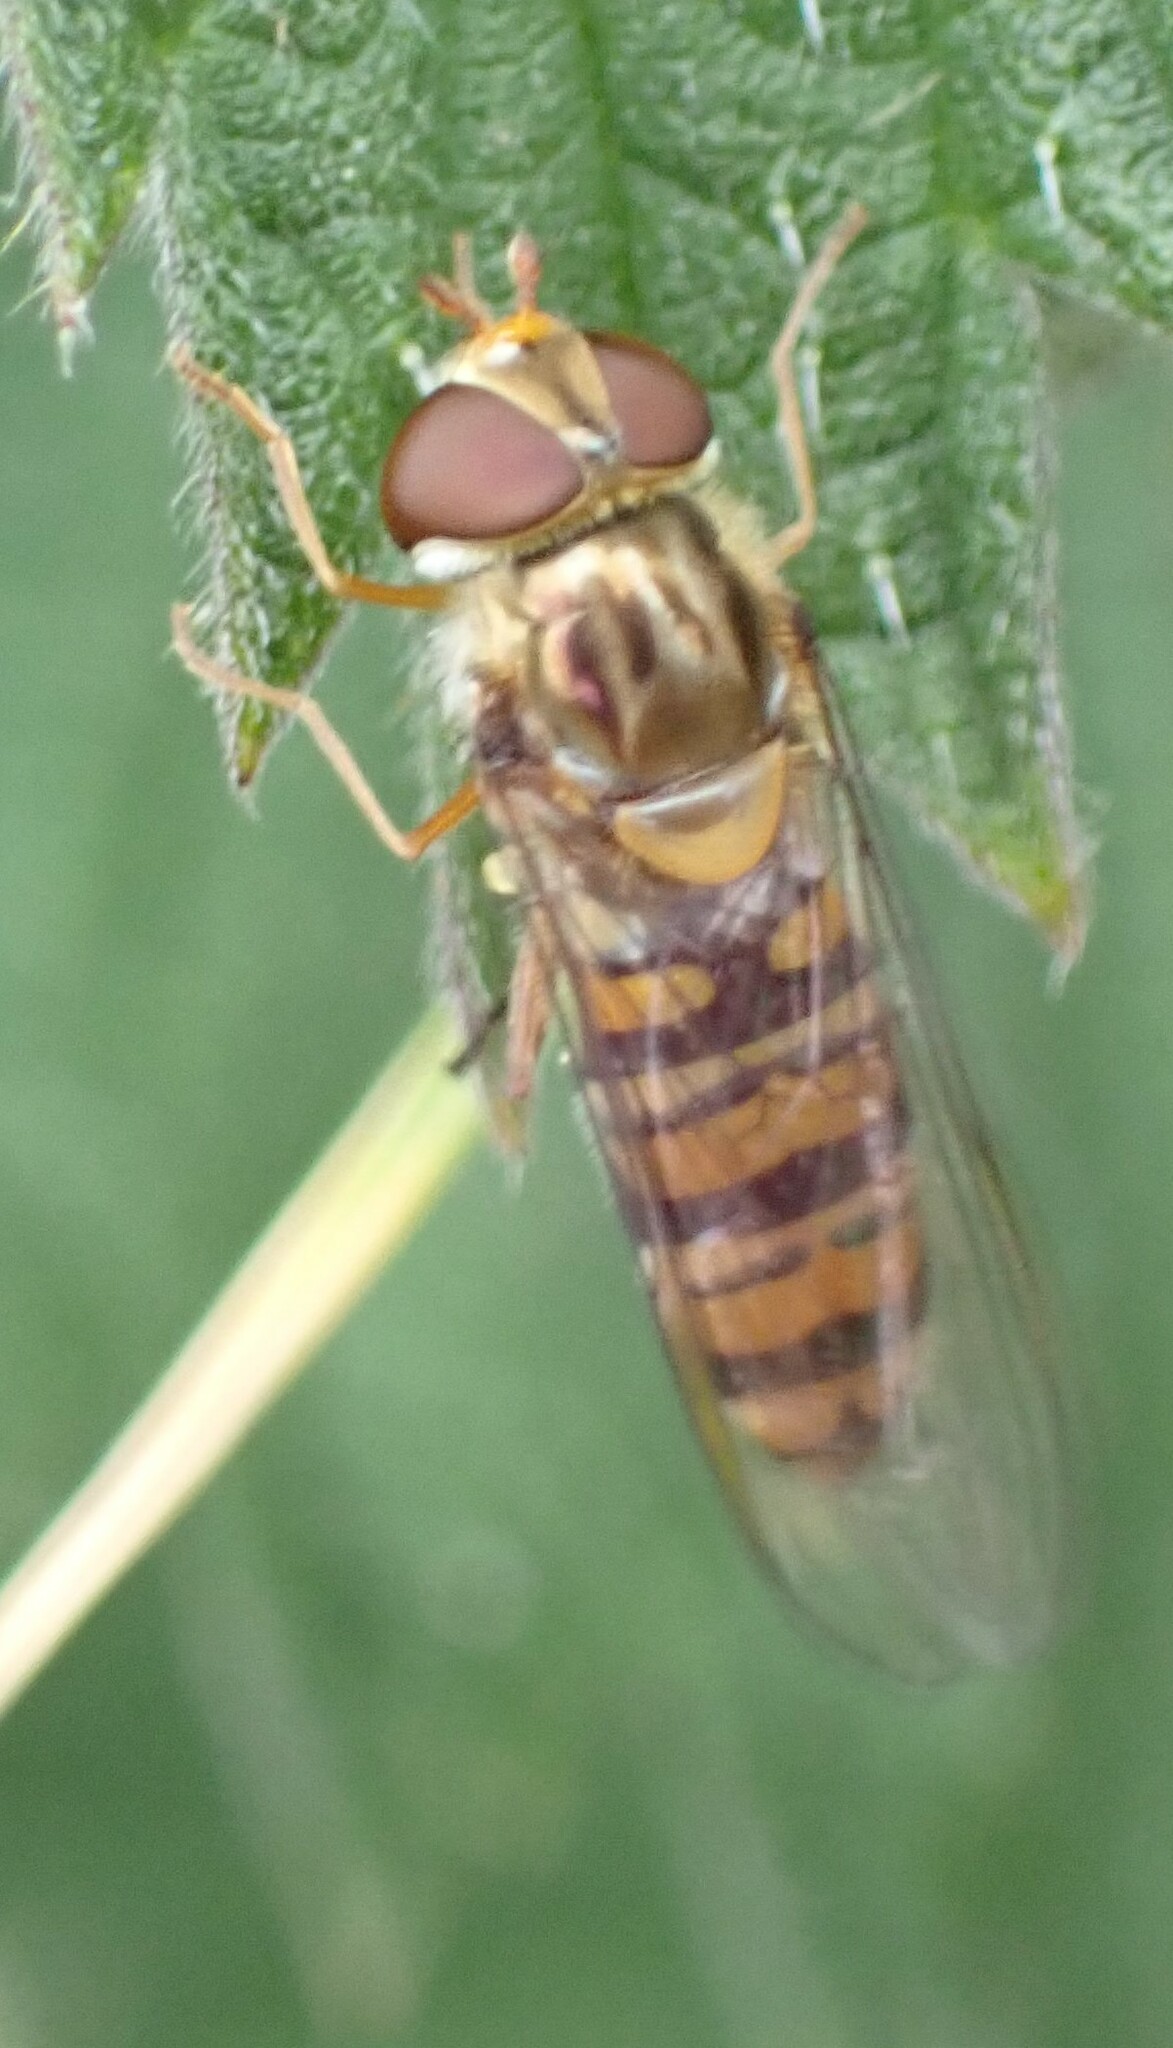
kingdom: Animalia
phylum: Arthropoda
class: Insecta
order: Diptera
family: Syrphidae
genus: Episyrphus
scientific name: Episyrphus balteatus
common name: Marmalade hoverfly
